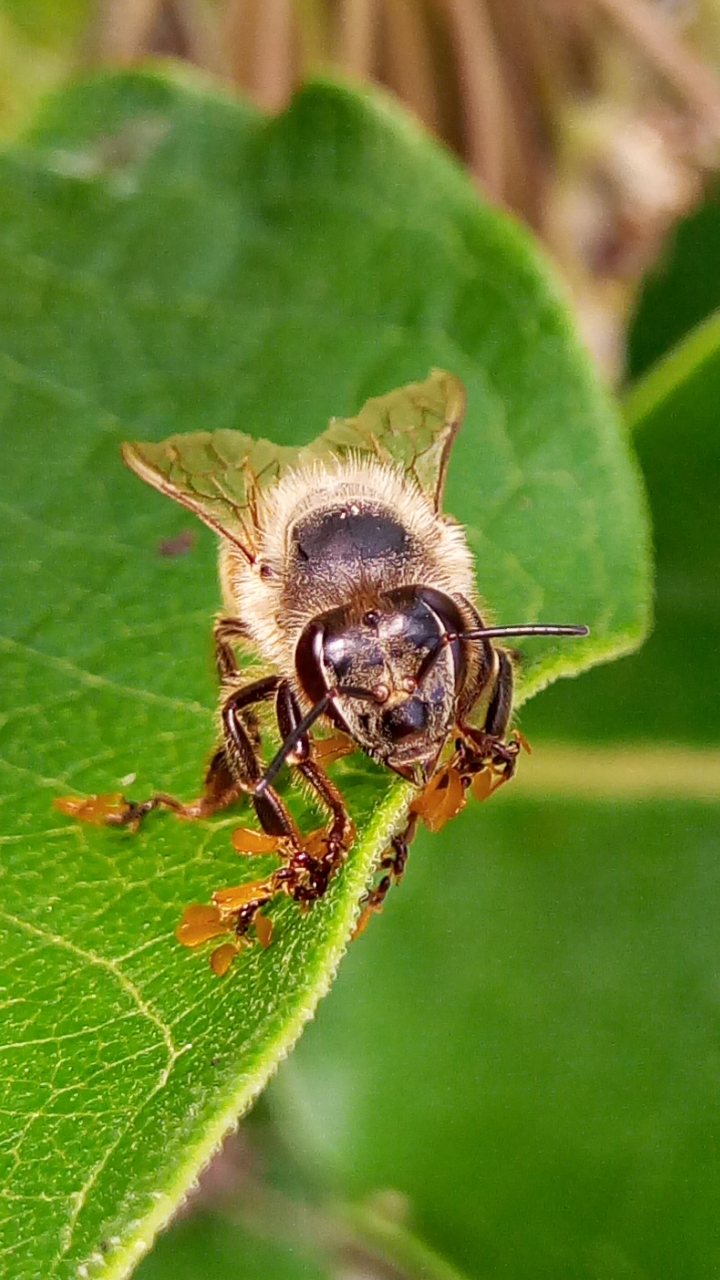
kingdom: Animalia
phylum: Arthropoda
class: Insecta
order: Hymenoptera
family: Apidae
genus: Apis
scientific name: Apis mellifera
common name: Honey bee
